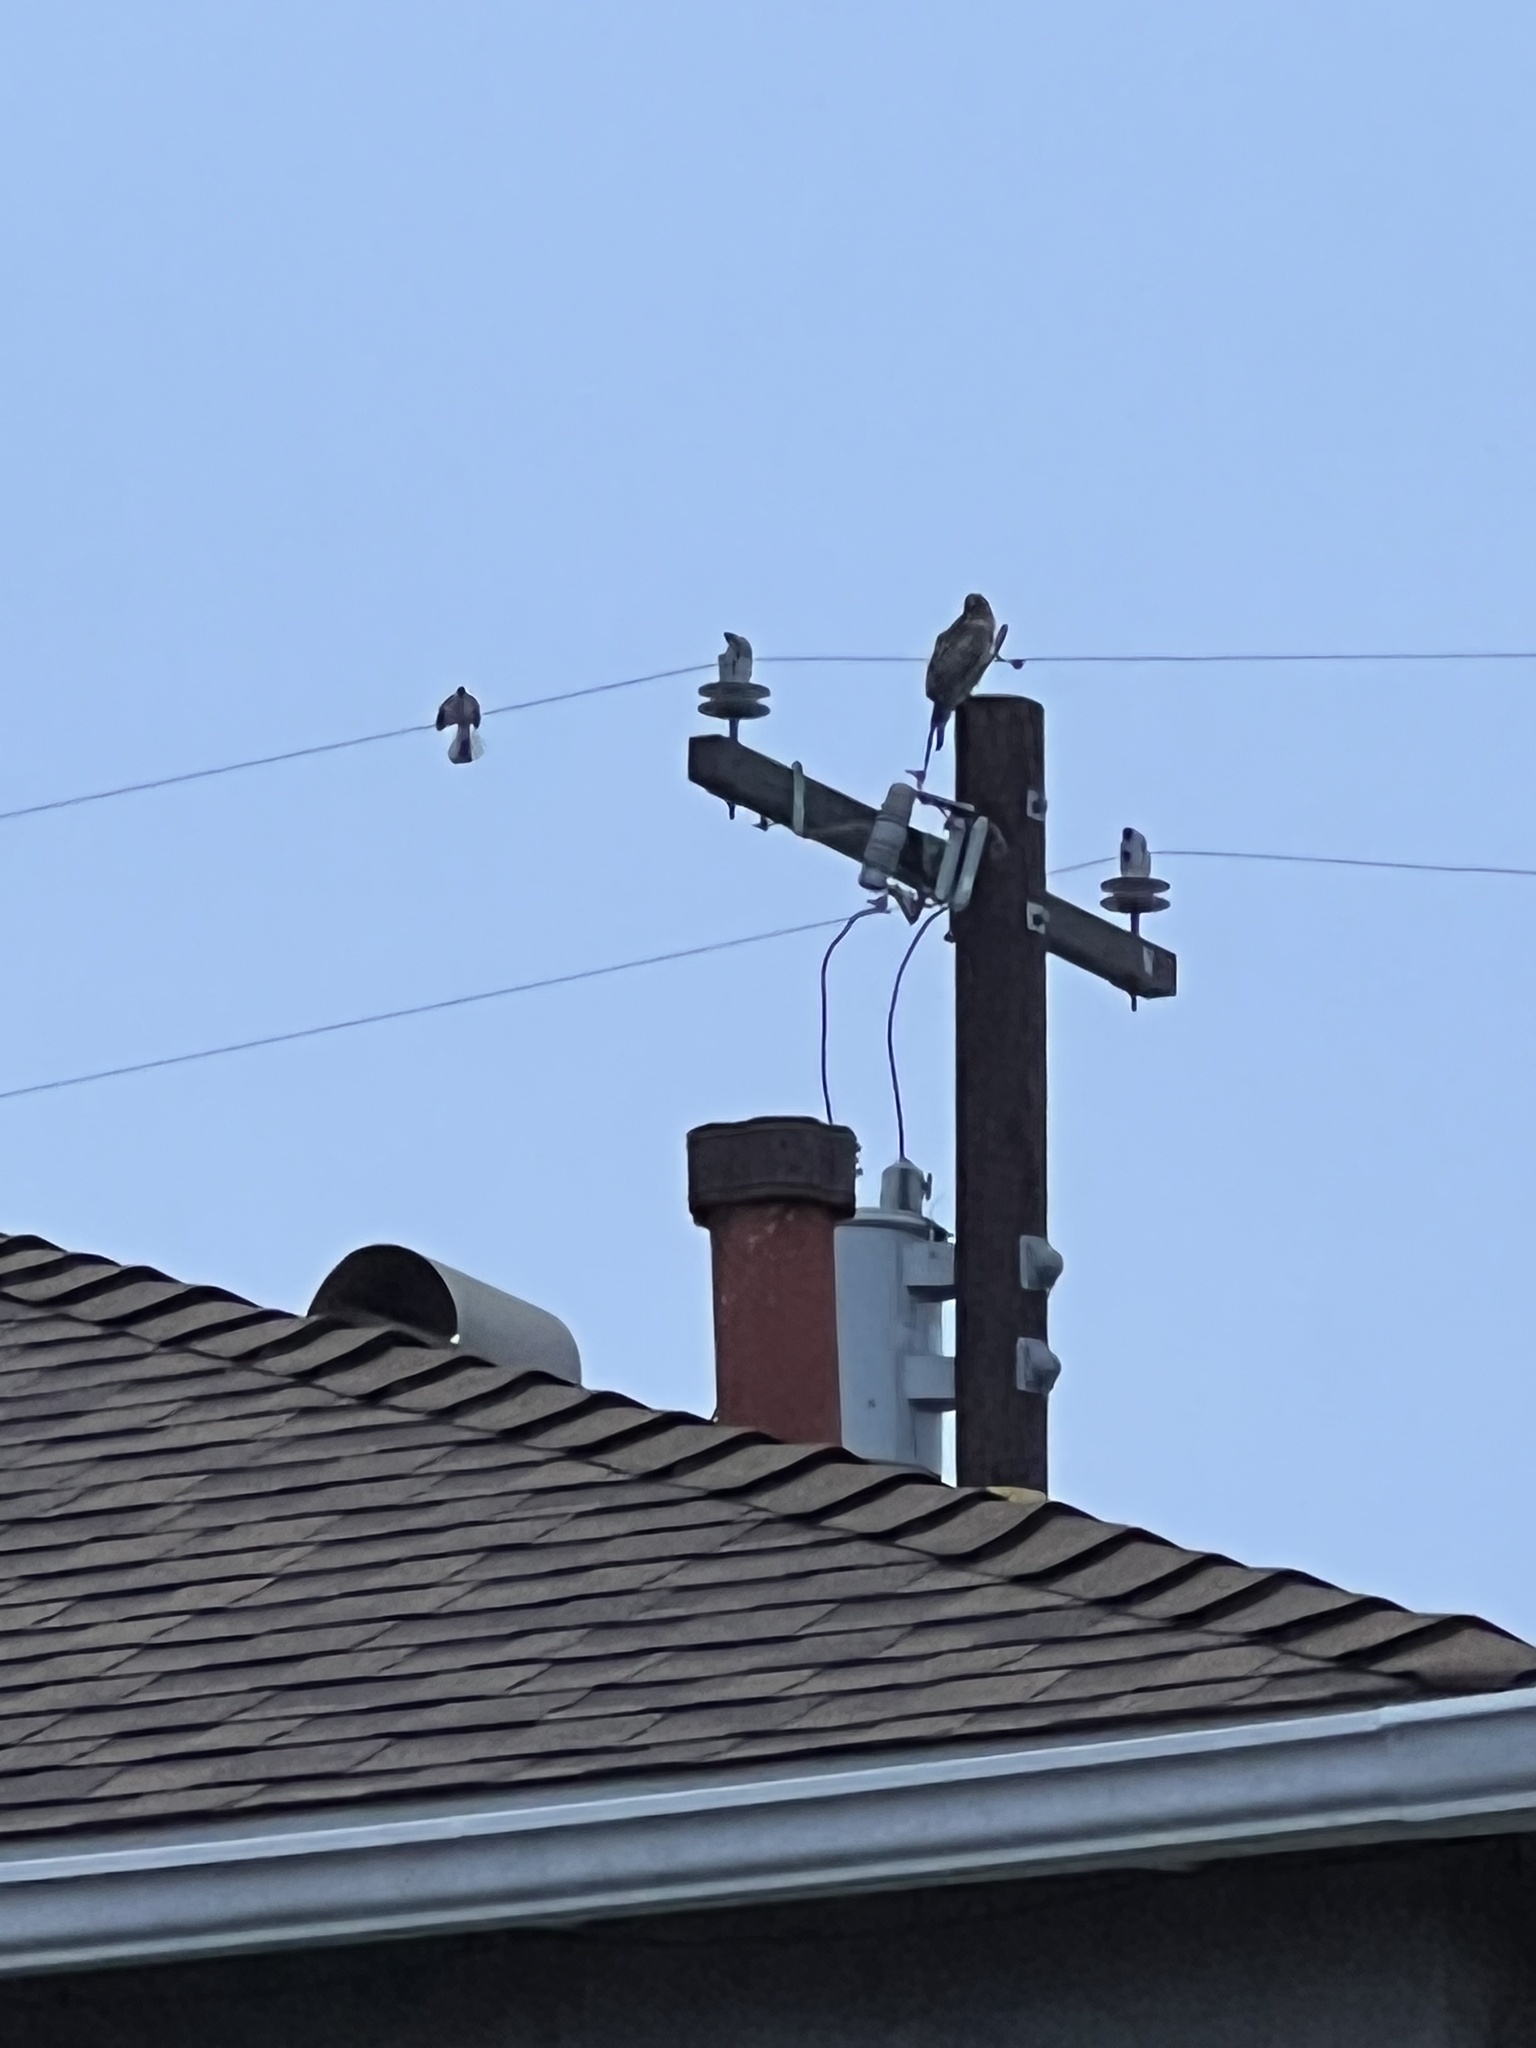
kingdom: Animalia
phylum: Chordata
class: Aves
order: Accipitriformes
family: Accipitridae
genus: Buteo
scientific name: Buteo jamaicensis
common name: Red-tailed hawk
